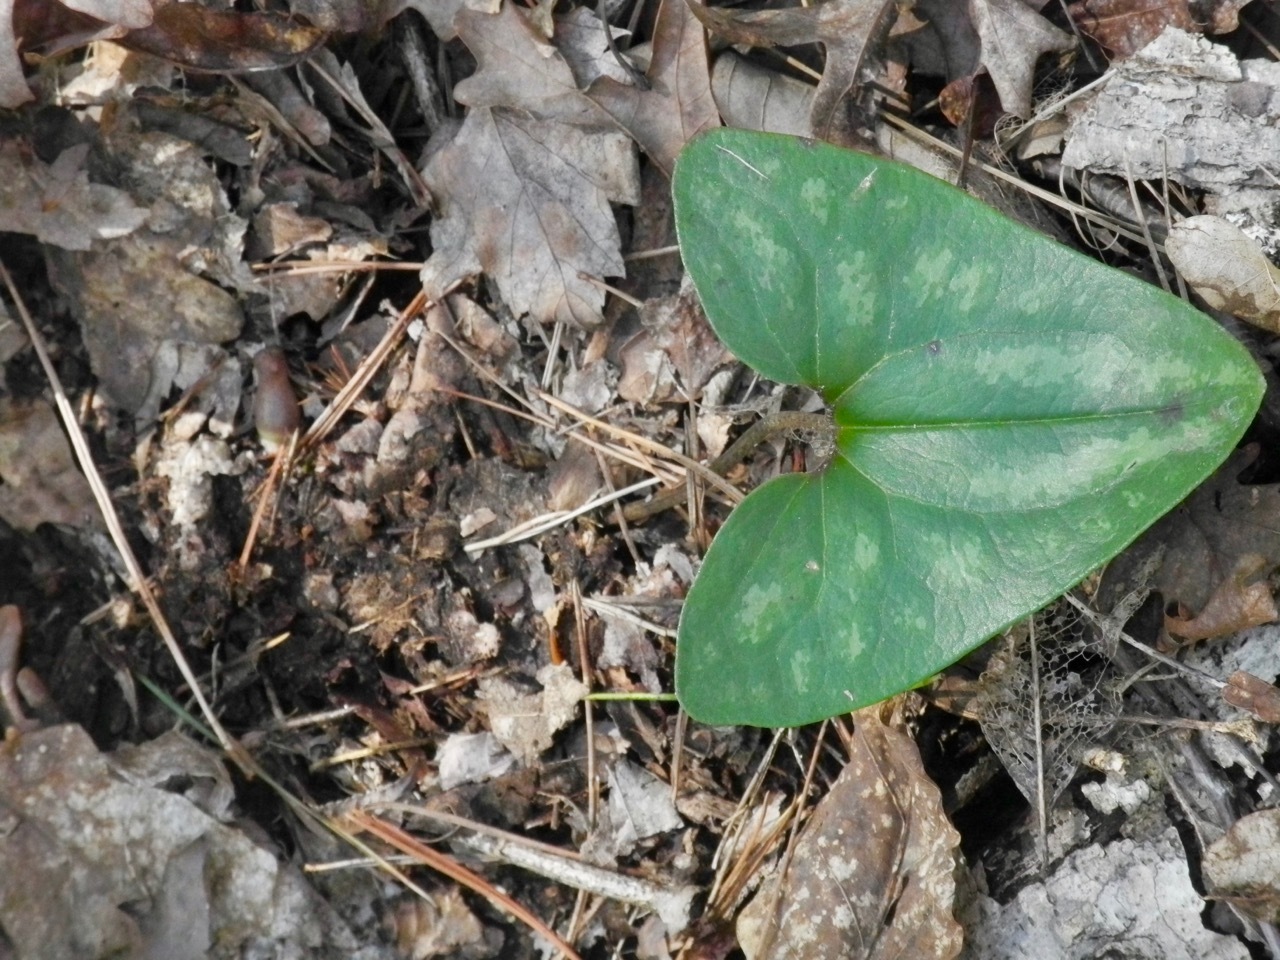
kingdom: Plantae
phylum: Tracheophyta
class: Magnoliopsida
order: Piperales
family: Aristolochiaceae
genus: Hexastylis
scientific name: Hexastylis arifolia
